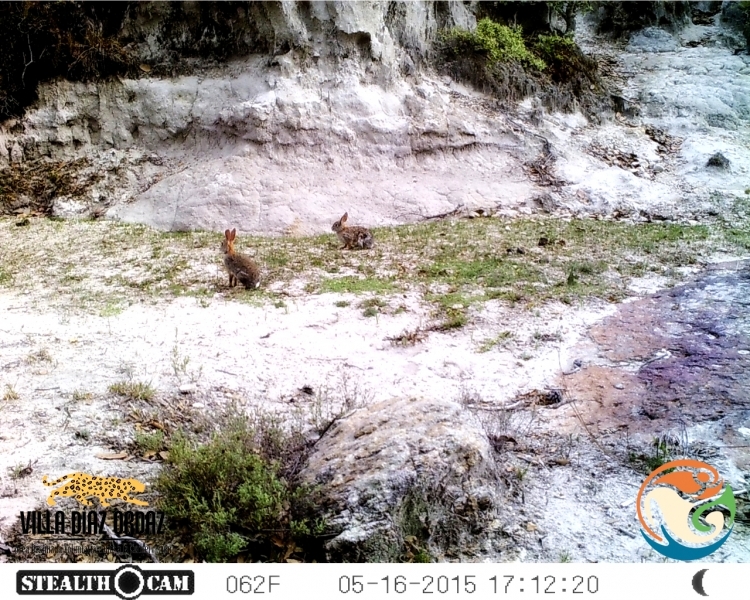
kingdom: Animalia
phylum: Chordata
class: Mammalia
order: Lagomorpha
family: Leporidae
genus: Sylvilagus
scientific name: Sylvilagus cunicularius
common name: Mexican cottontail
